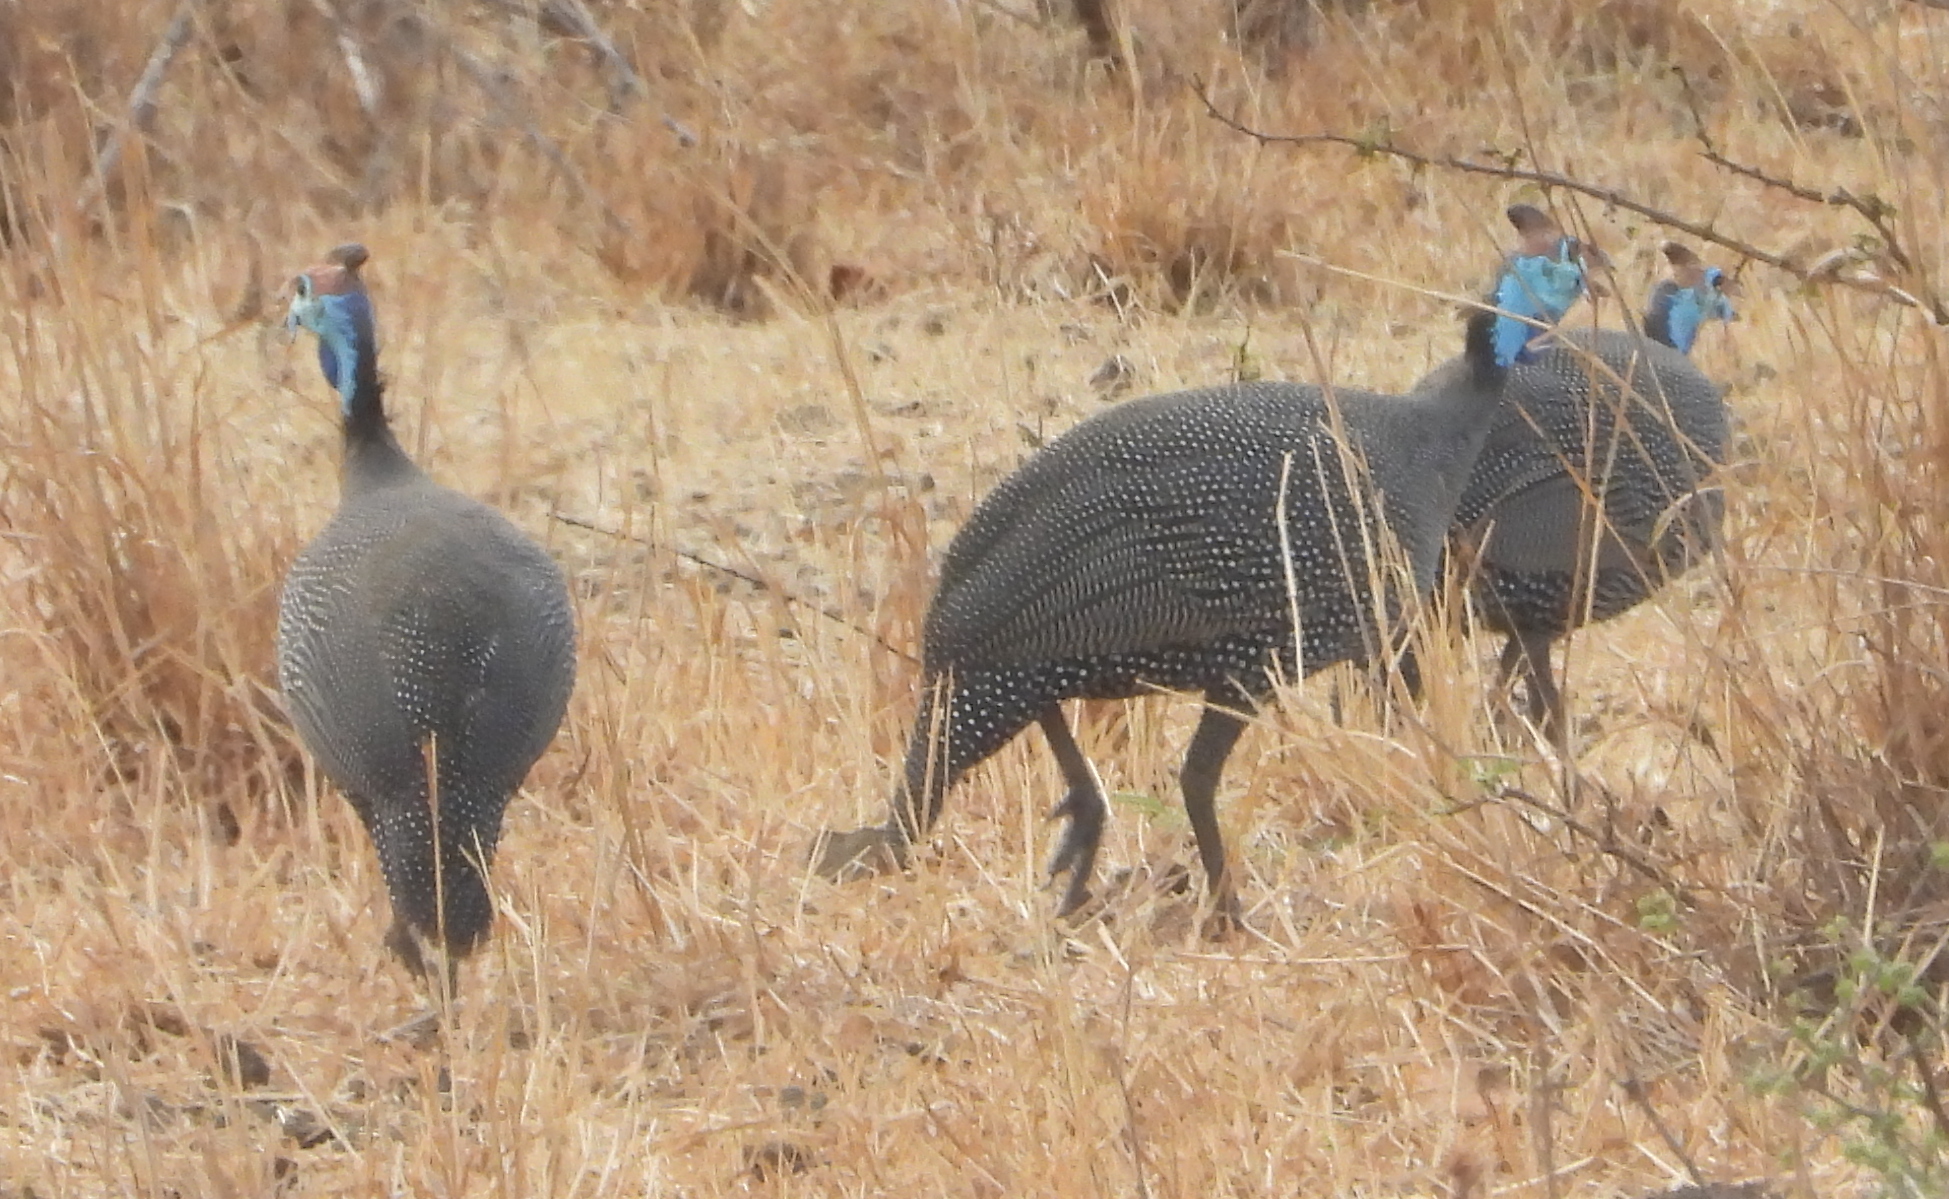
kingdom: Animalia
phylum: Chordata
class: Aves
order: Galliformes
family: Numididae
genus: Numida
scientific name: Numida meleagris
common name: Helmeted guineafowl
